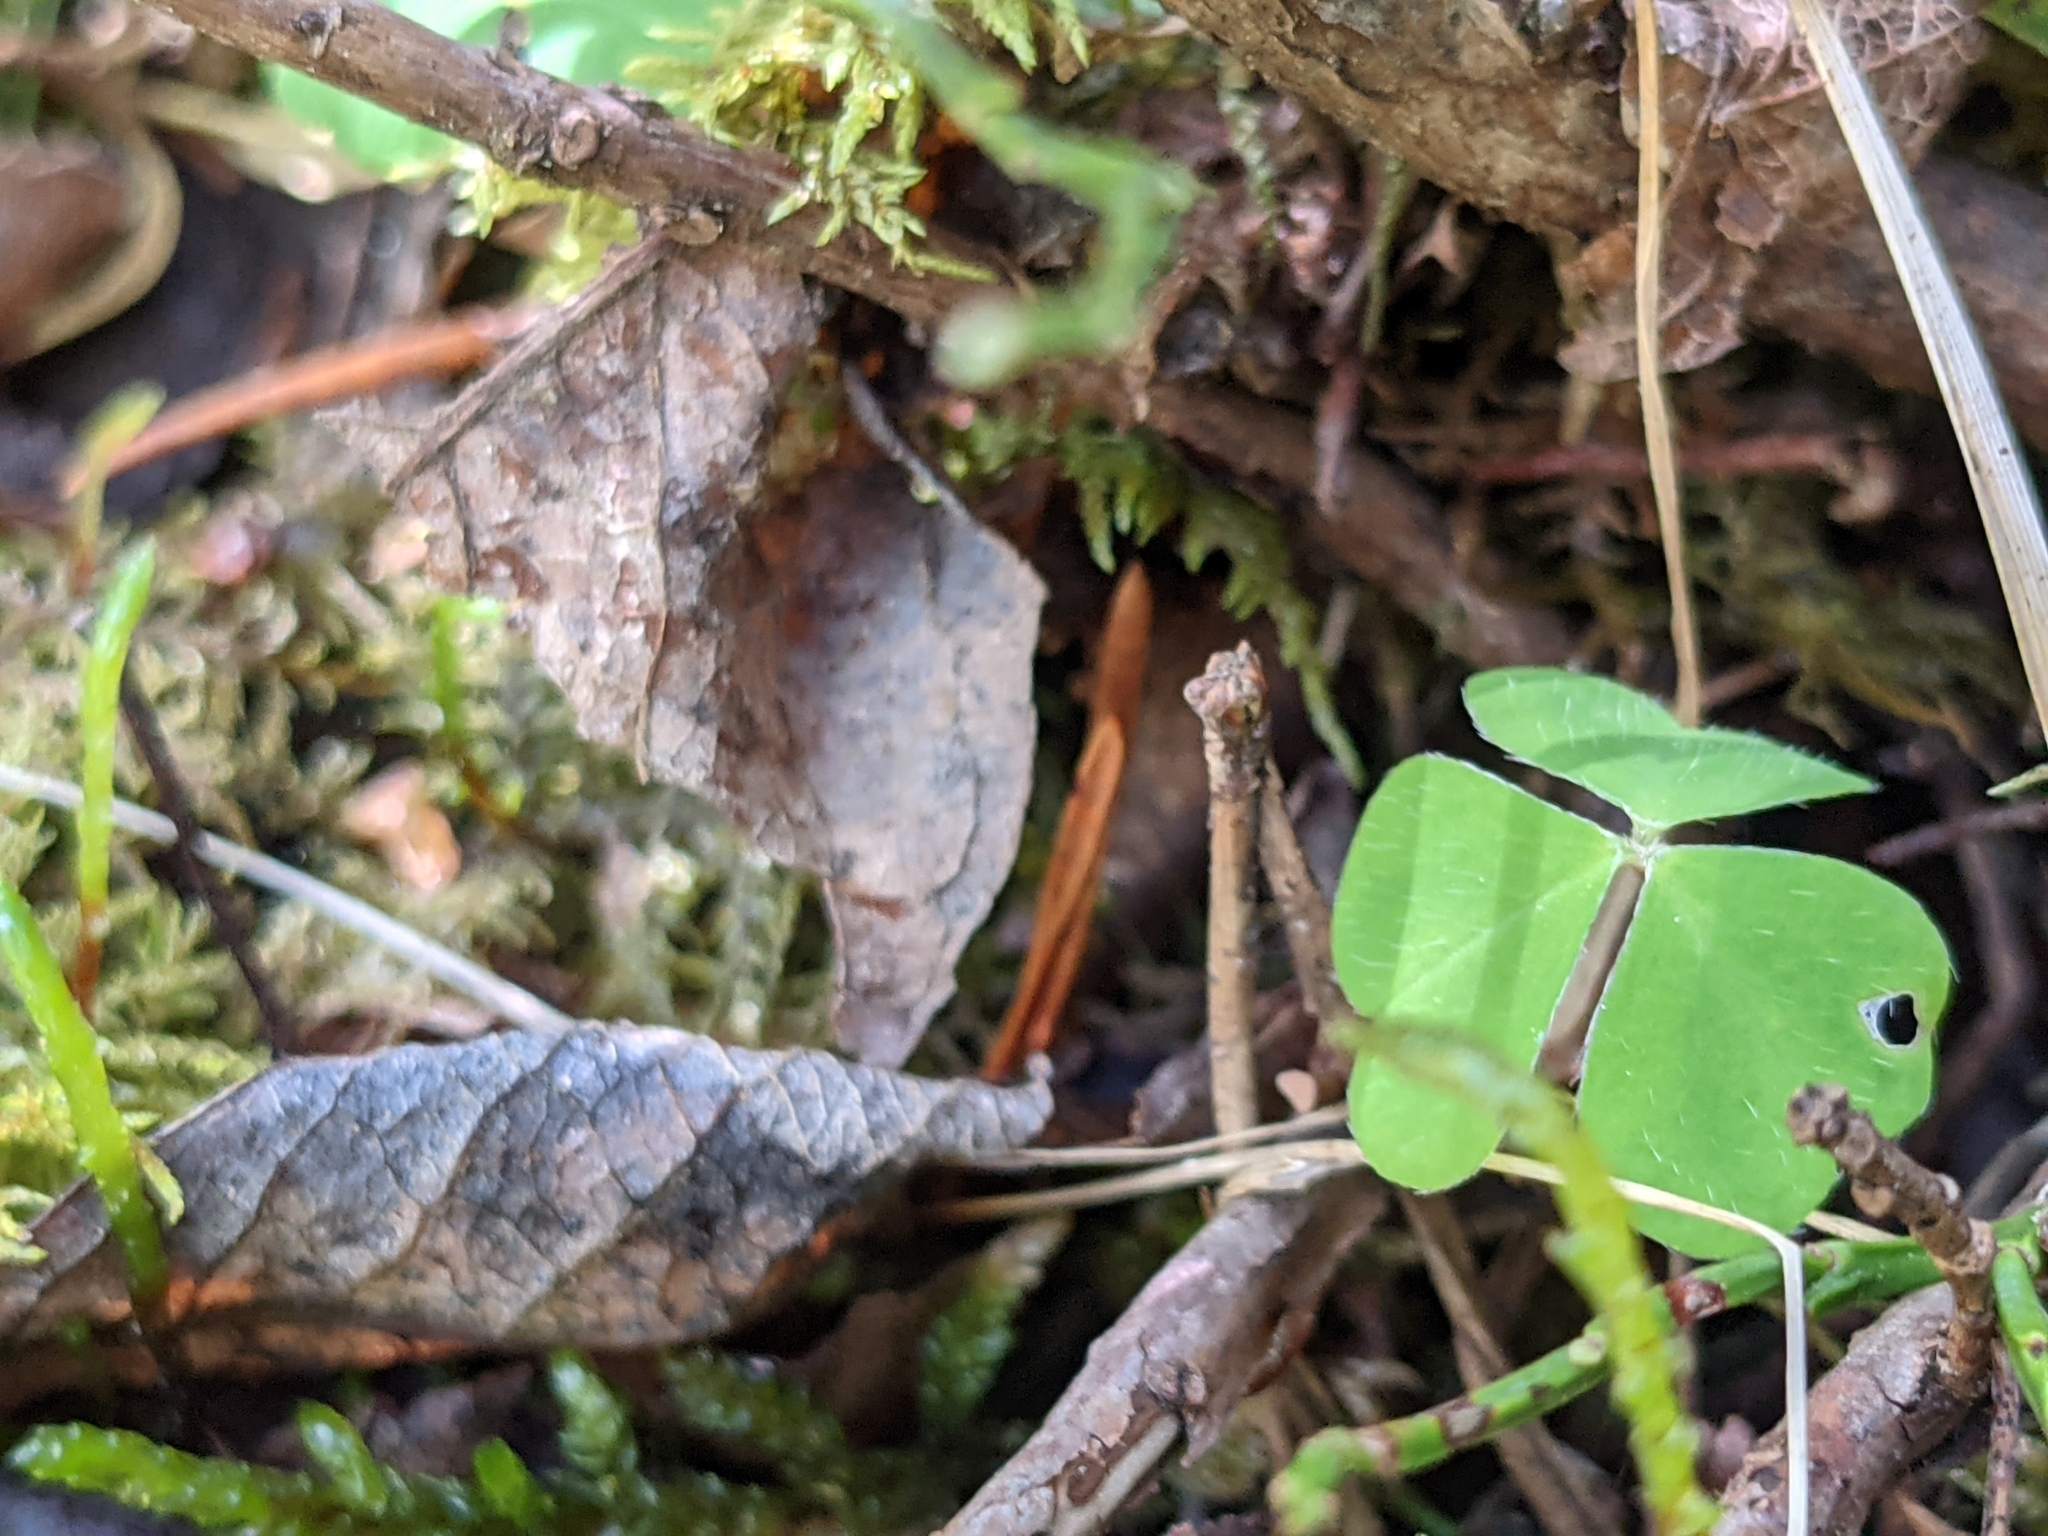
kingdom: Plantae
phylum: Tracheophyta
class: Magnoliopsida
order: Oxalidales
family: Oxalidaceae
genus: Oxalis
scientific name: Oxalis acetosella
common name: Wood-sorrel
